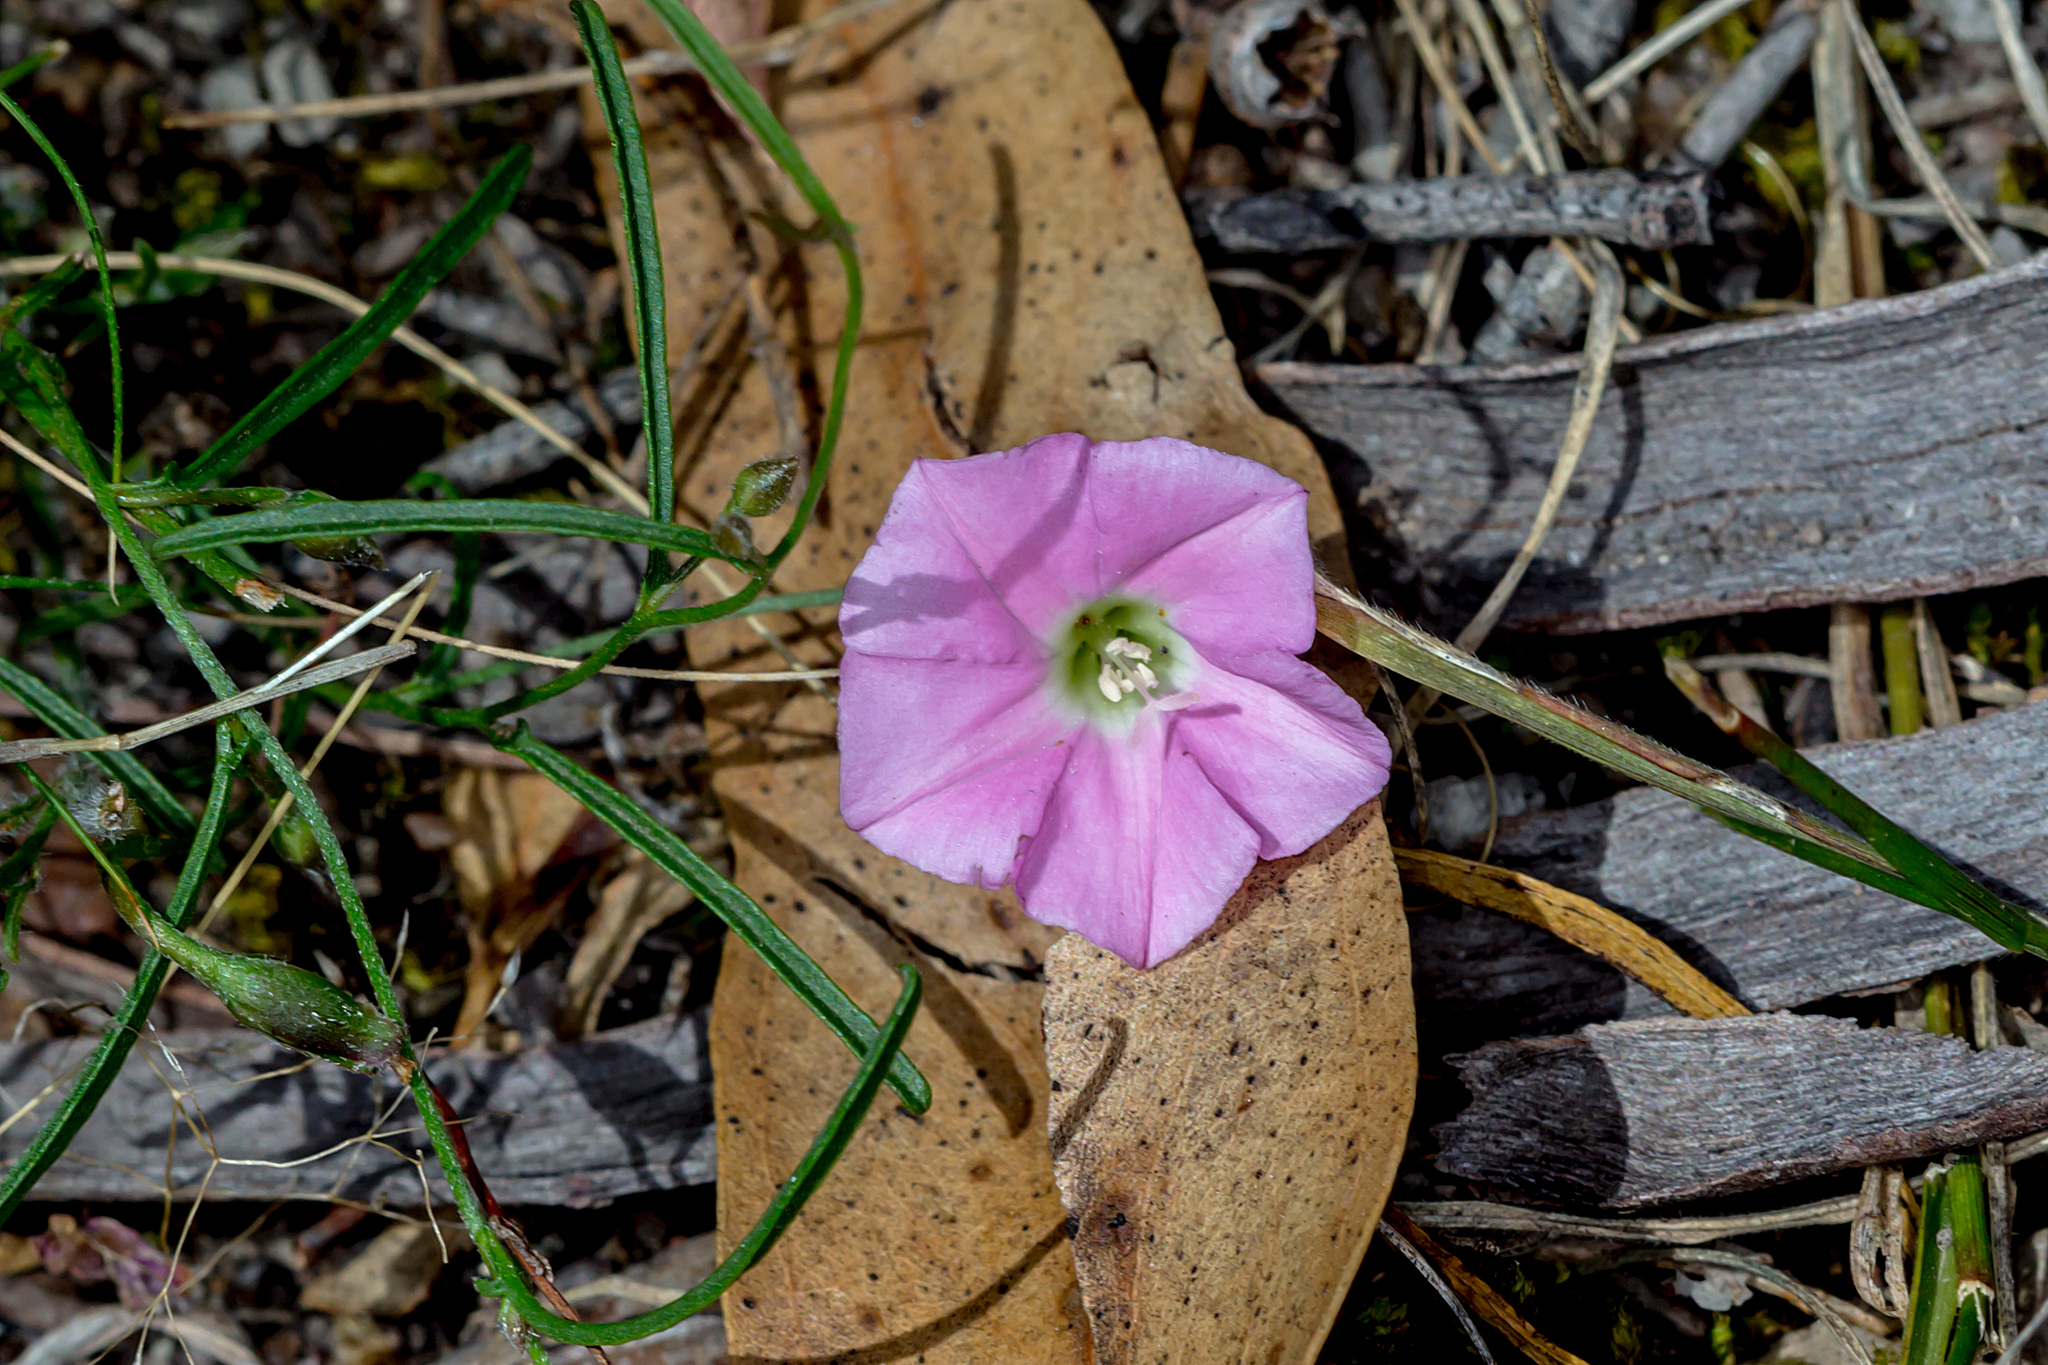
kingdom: Plantae
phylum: Tracheophyta
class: Magnoliopsida
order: Solanales
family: Convolvulaceae
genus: Convolvulus
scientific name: Convolvulus angustissimus
